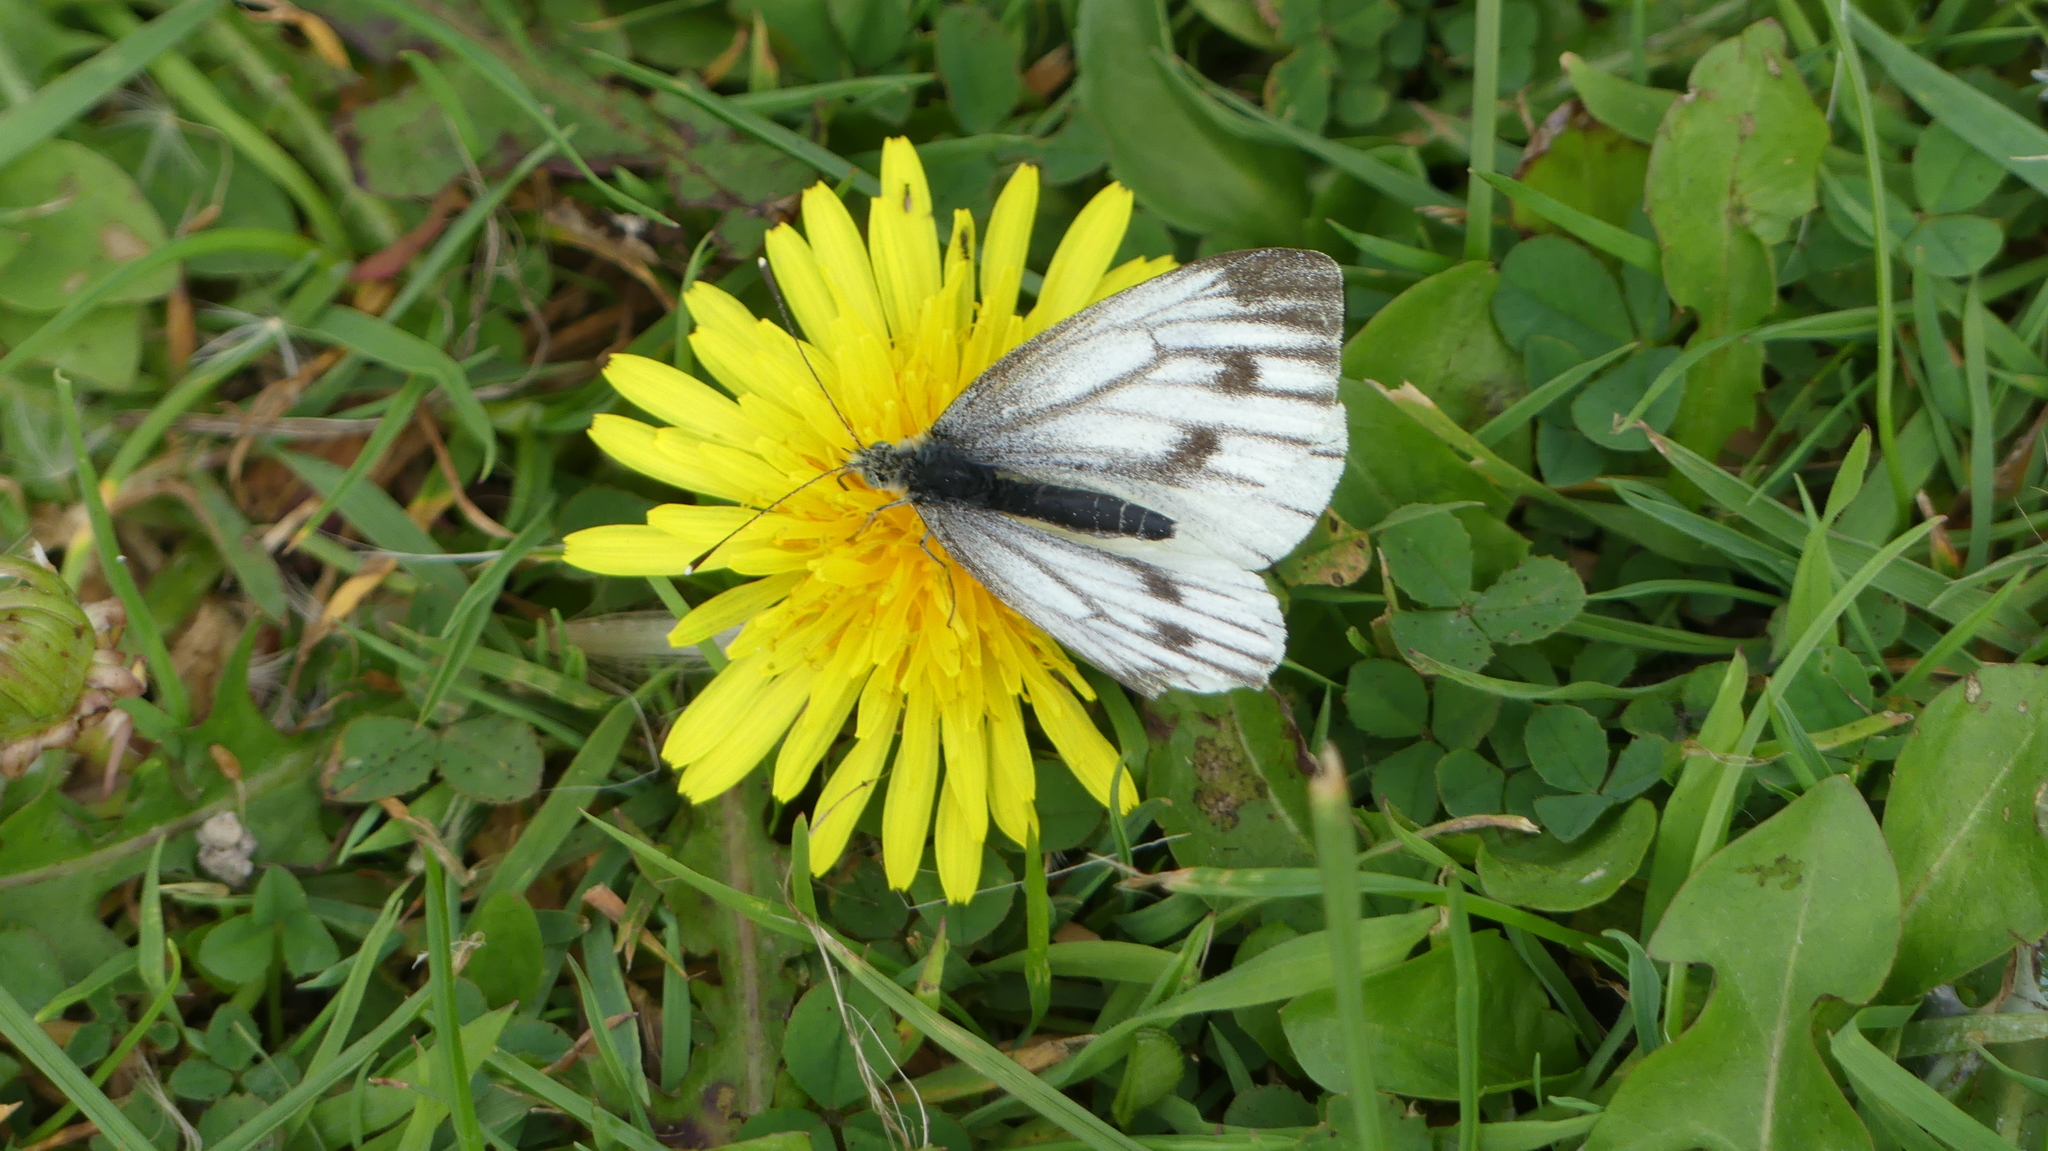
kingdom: Animalia
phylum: Arthropoda
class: Insecta
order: Lepidoptera
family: Pieridae
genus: Pieris
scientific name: Pieris napi
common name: Green-veined white
